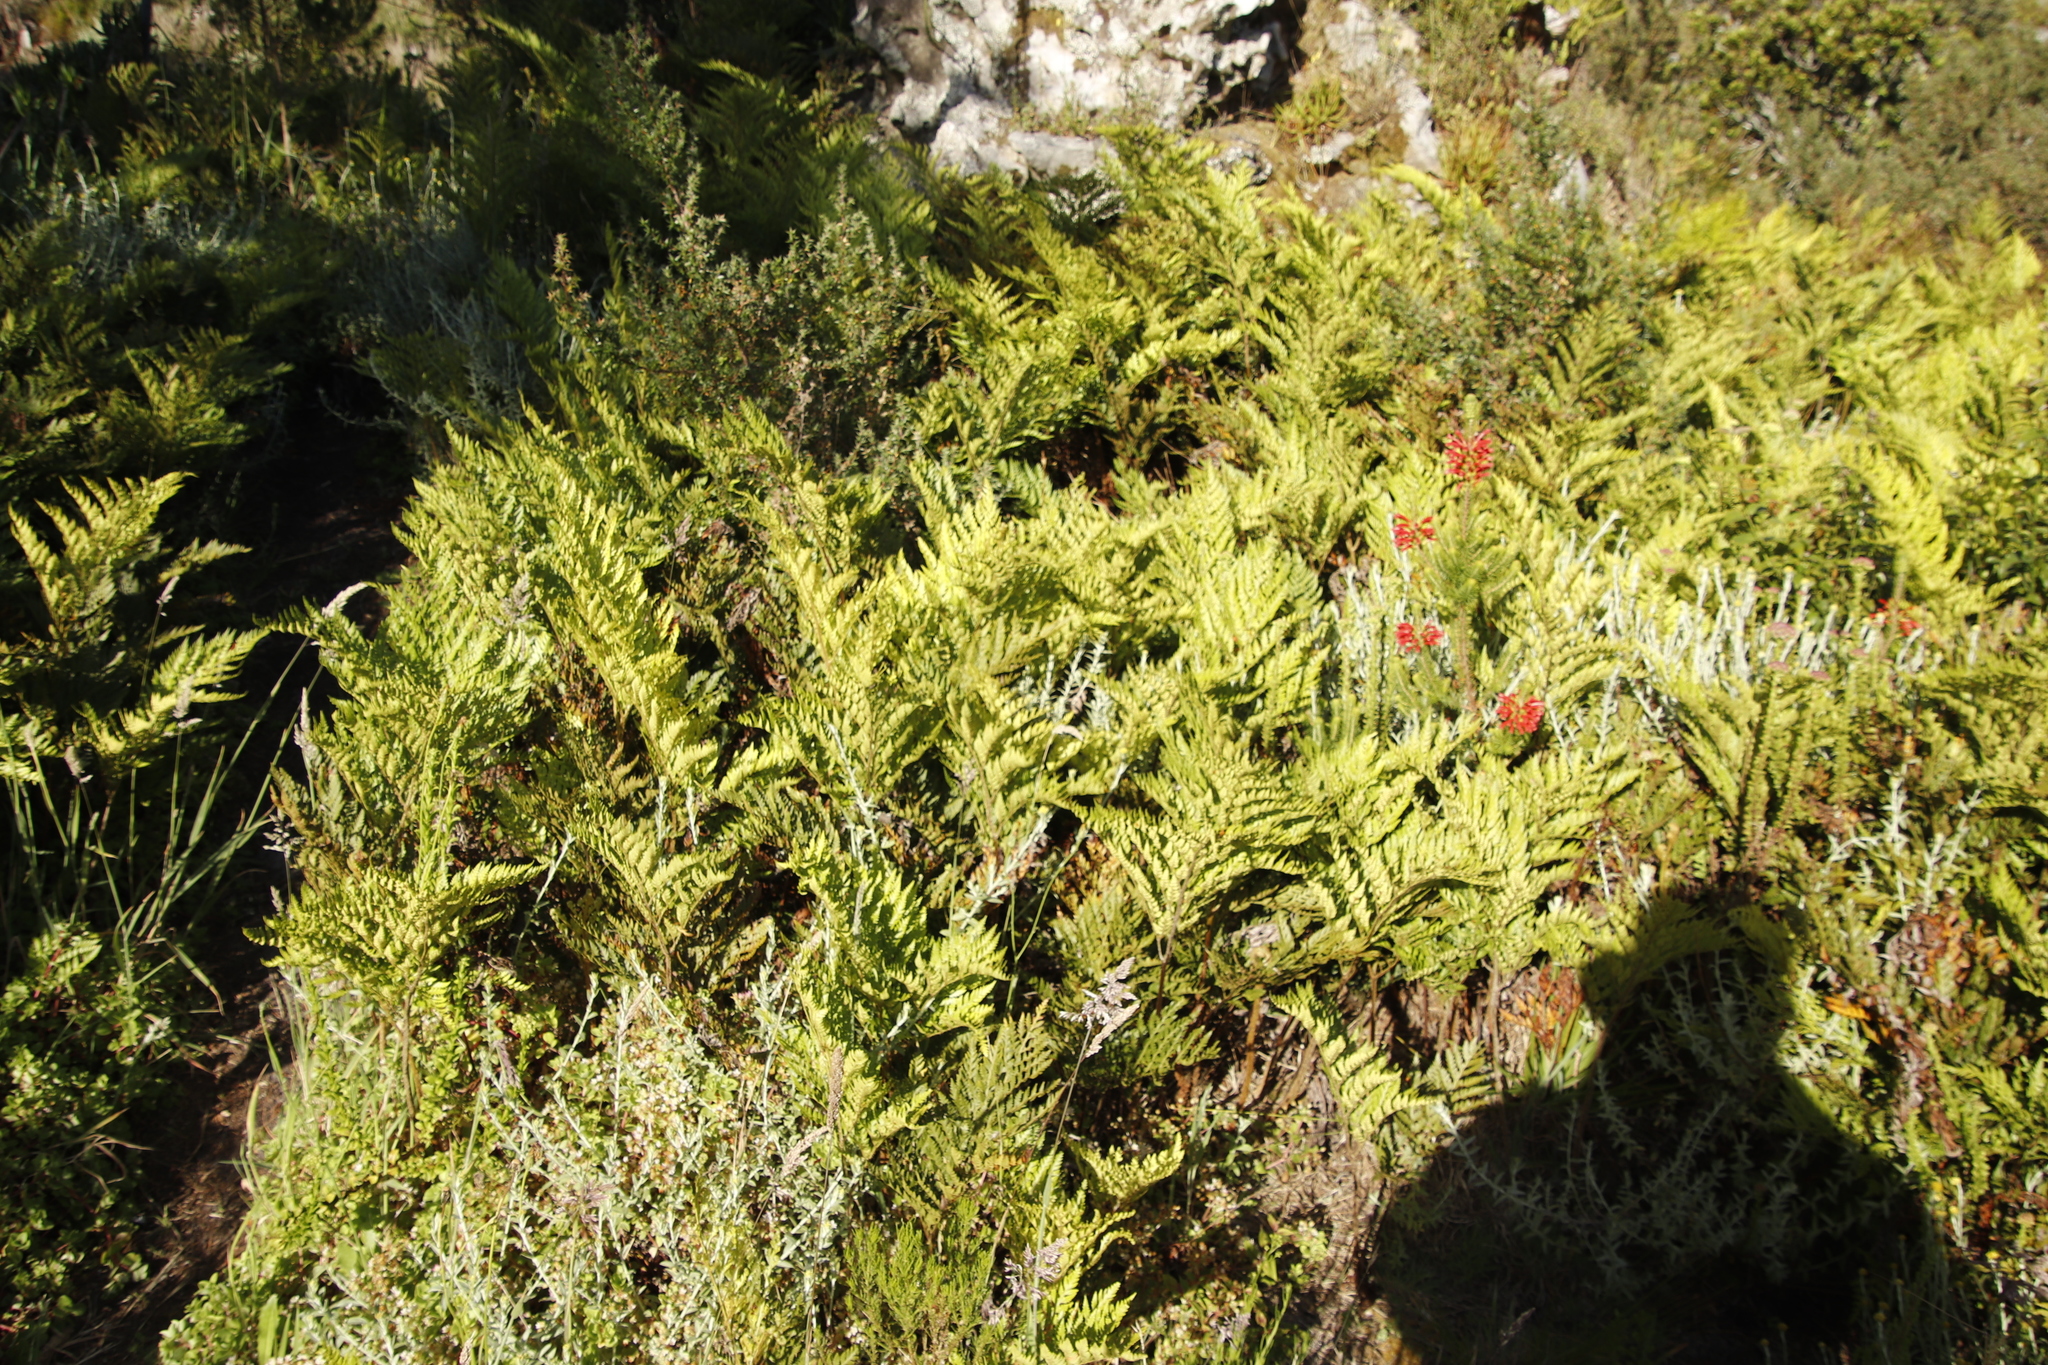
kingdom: Plantae
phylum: Tracheophyta
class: Polypodiopsida
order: Polypodiales
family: Dryopteridaceae
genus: Rumohra
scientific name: Rumohra adiantiformis
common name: Leather fern
